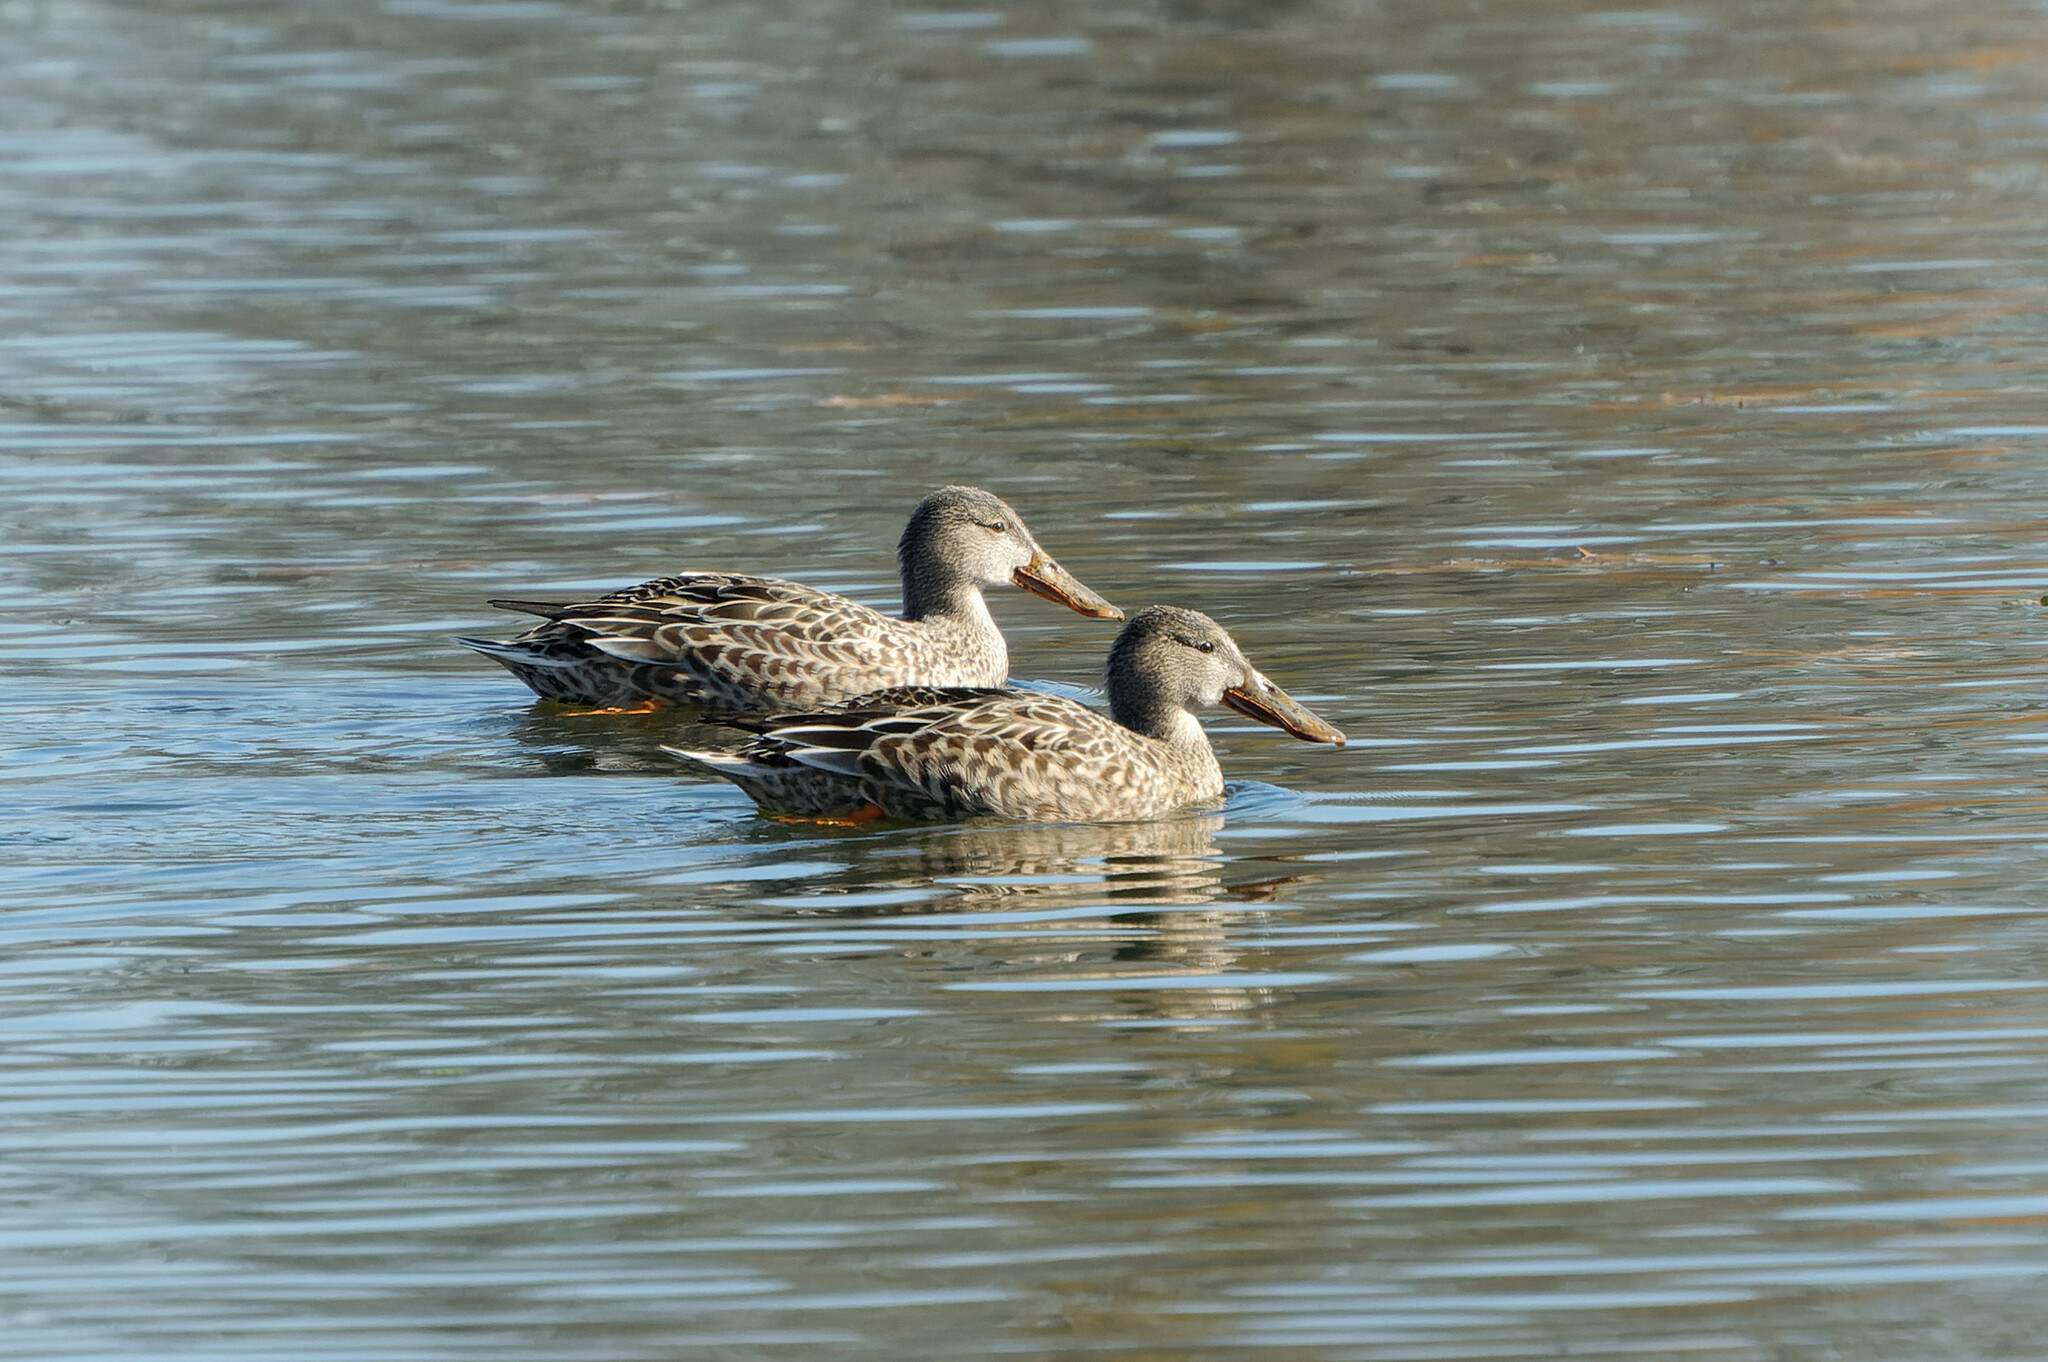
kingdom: Animalia
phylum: Chordata
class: Aves
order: Anseriformes
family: Anatidae
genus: Spatula
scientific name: Spatula clypeata
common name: Northern shoveler
